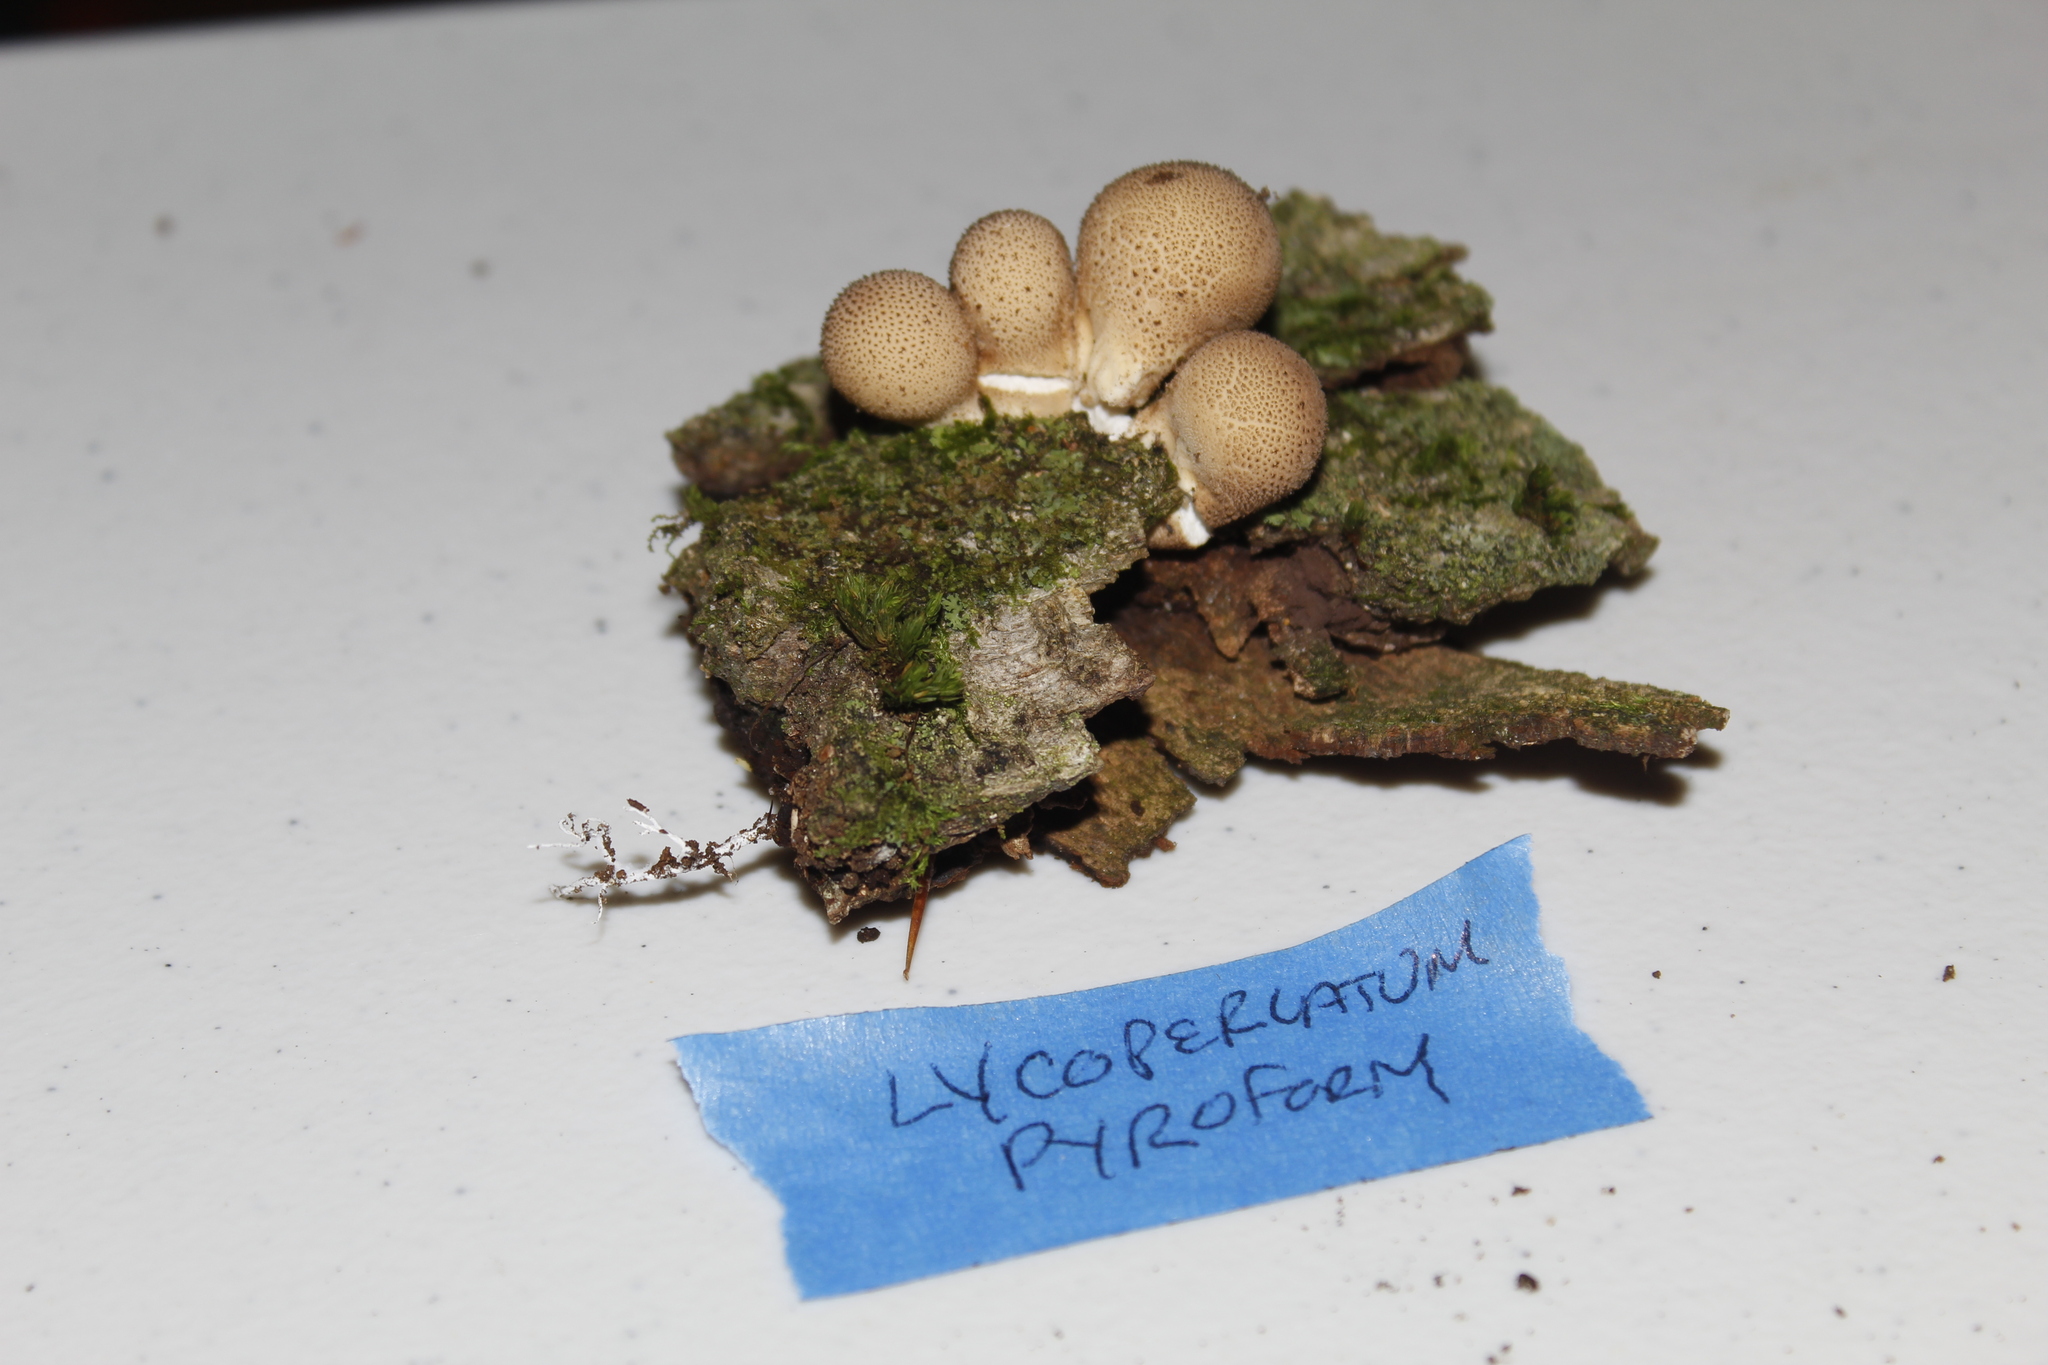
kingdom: Fungi
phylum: Basidiomycota
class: Agaricomycetes
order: Agaricales
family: Lycoperdaceae
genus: Apioperdon
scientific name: Apioperdon pyriforme
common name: Pear-shaped puffball
